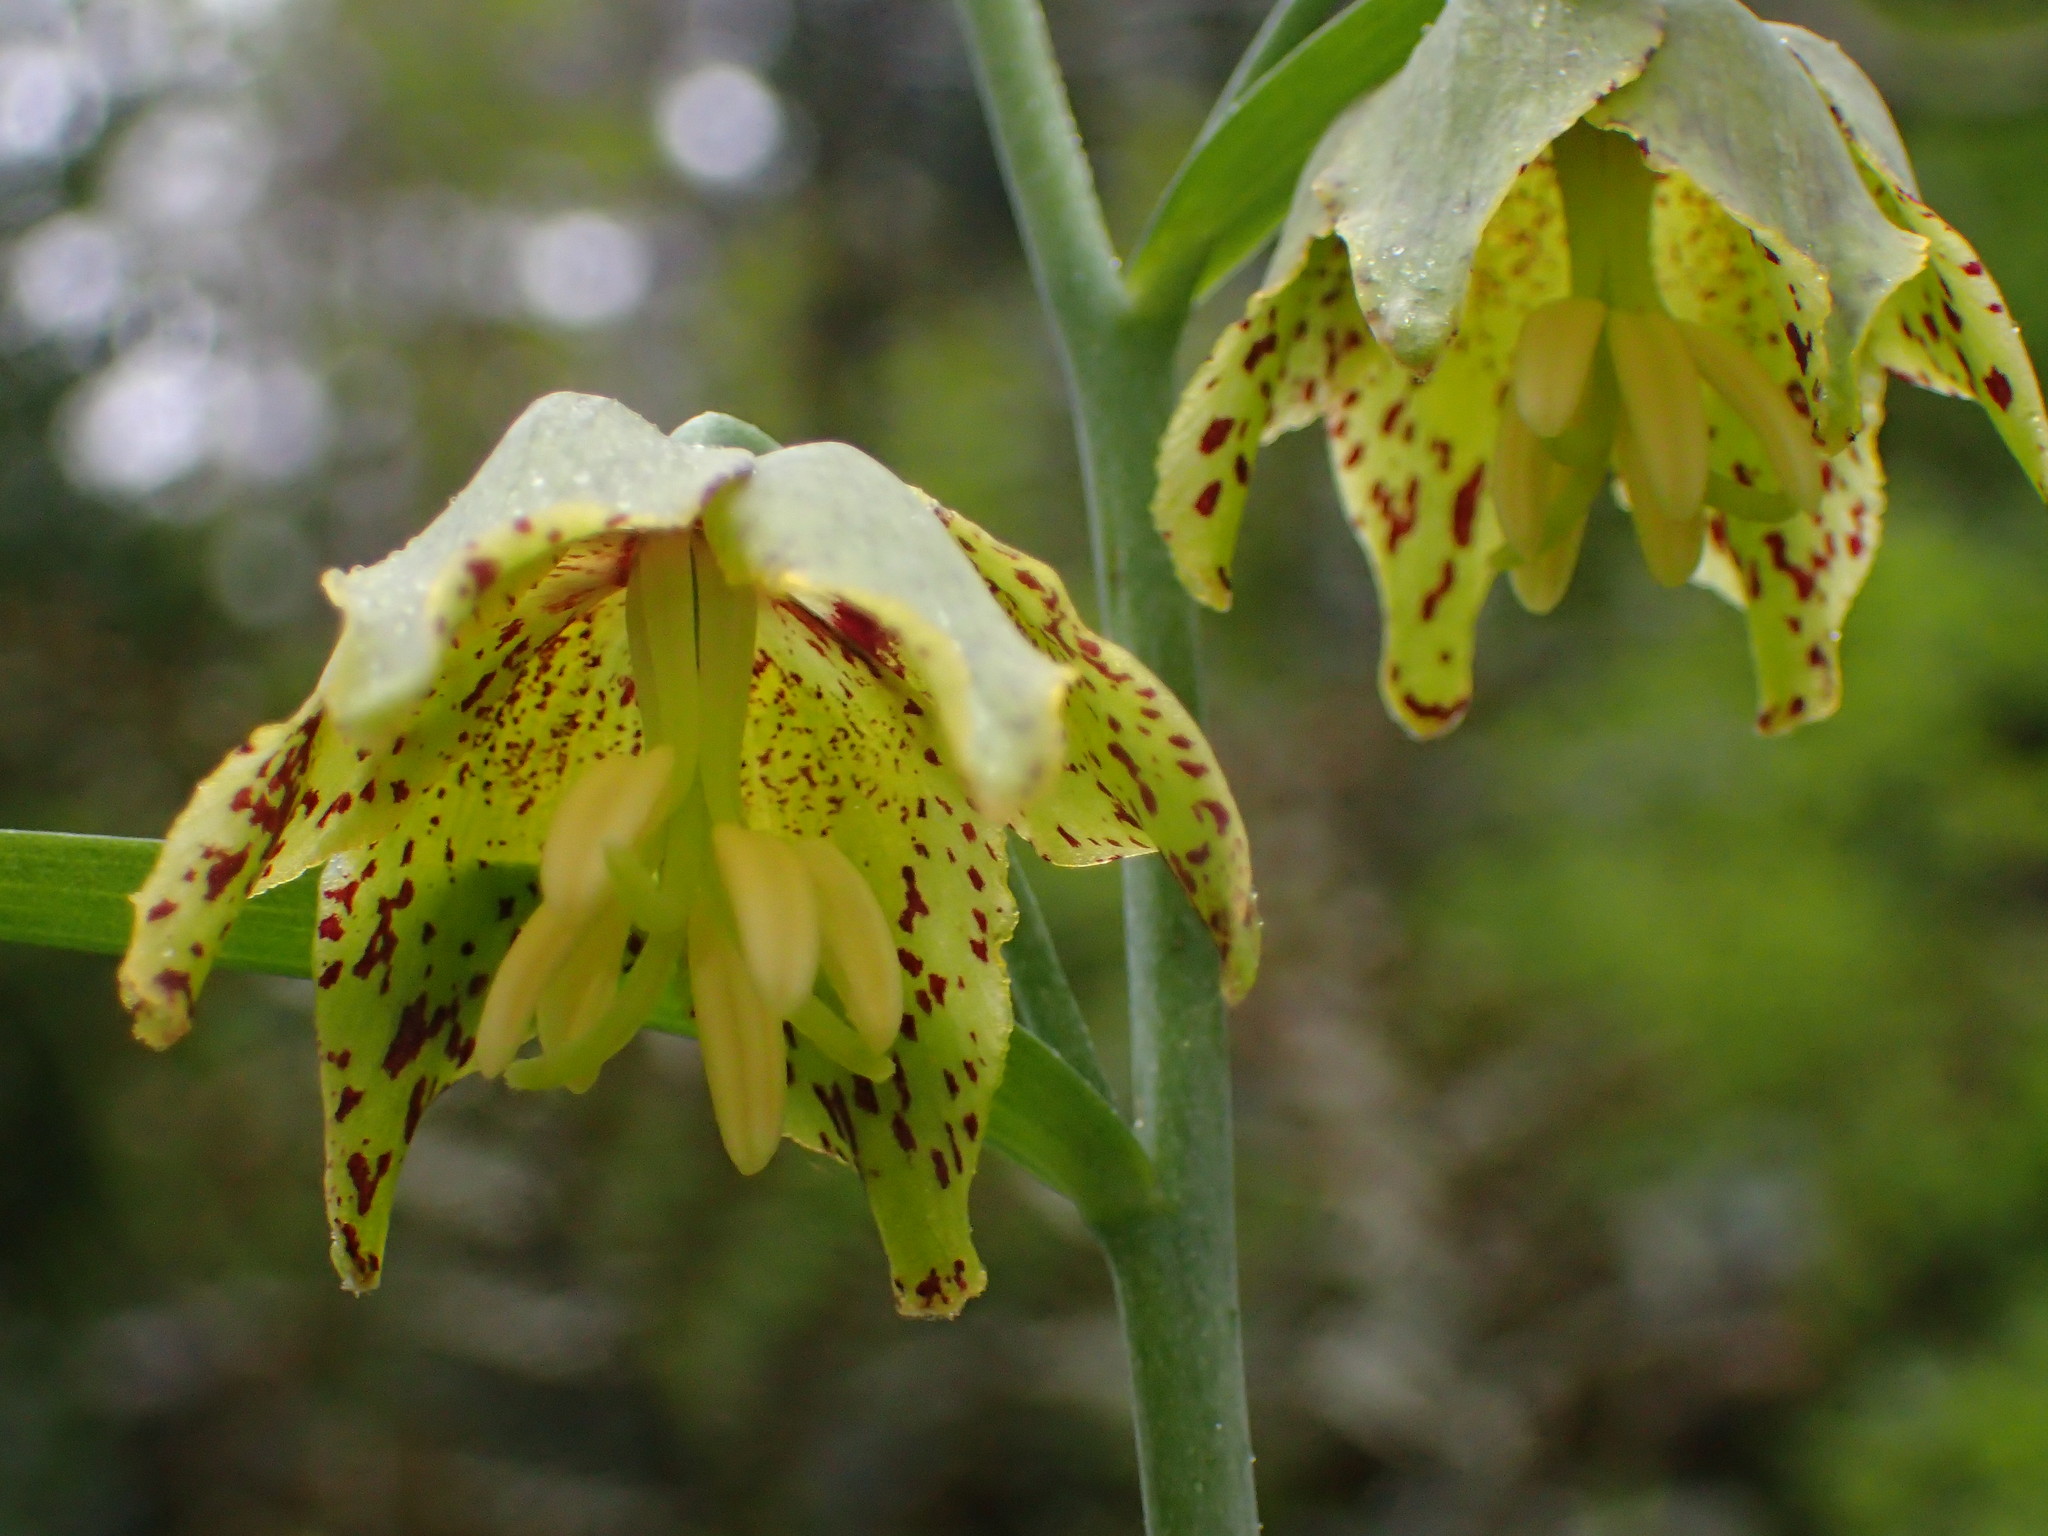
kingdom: Plantae
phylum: Tracheophyta
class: Liliopsida
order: Liliales
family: Liliaceae
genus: Fritillaria
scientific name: Fritillaria ojaiensis
